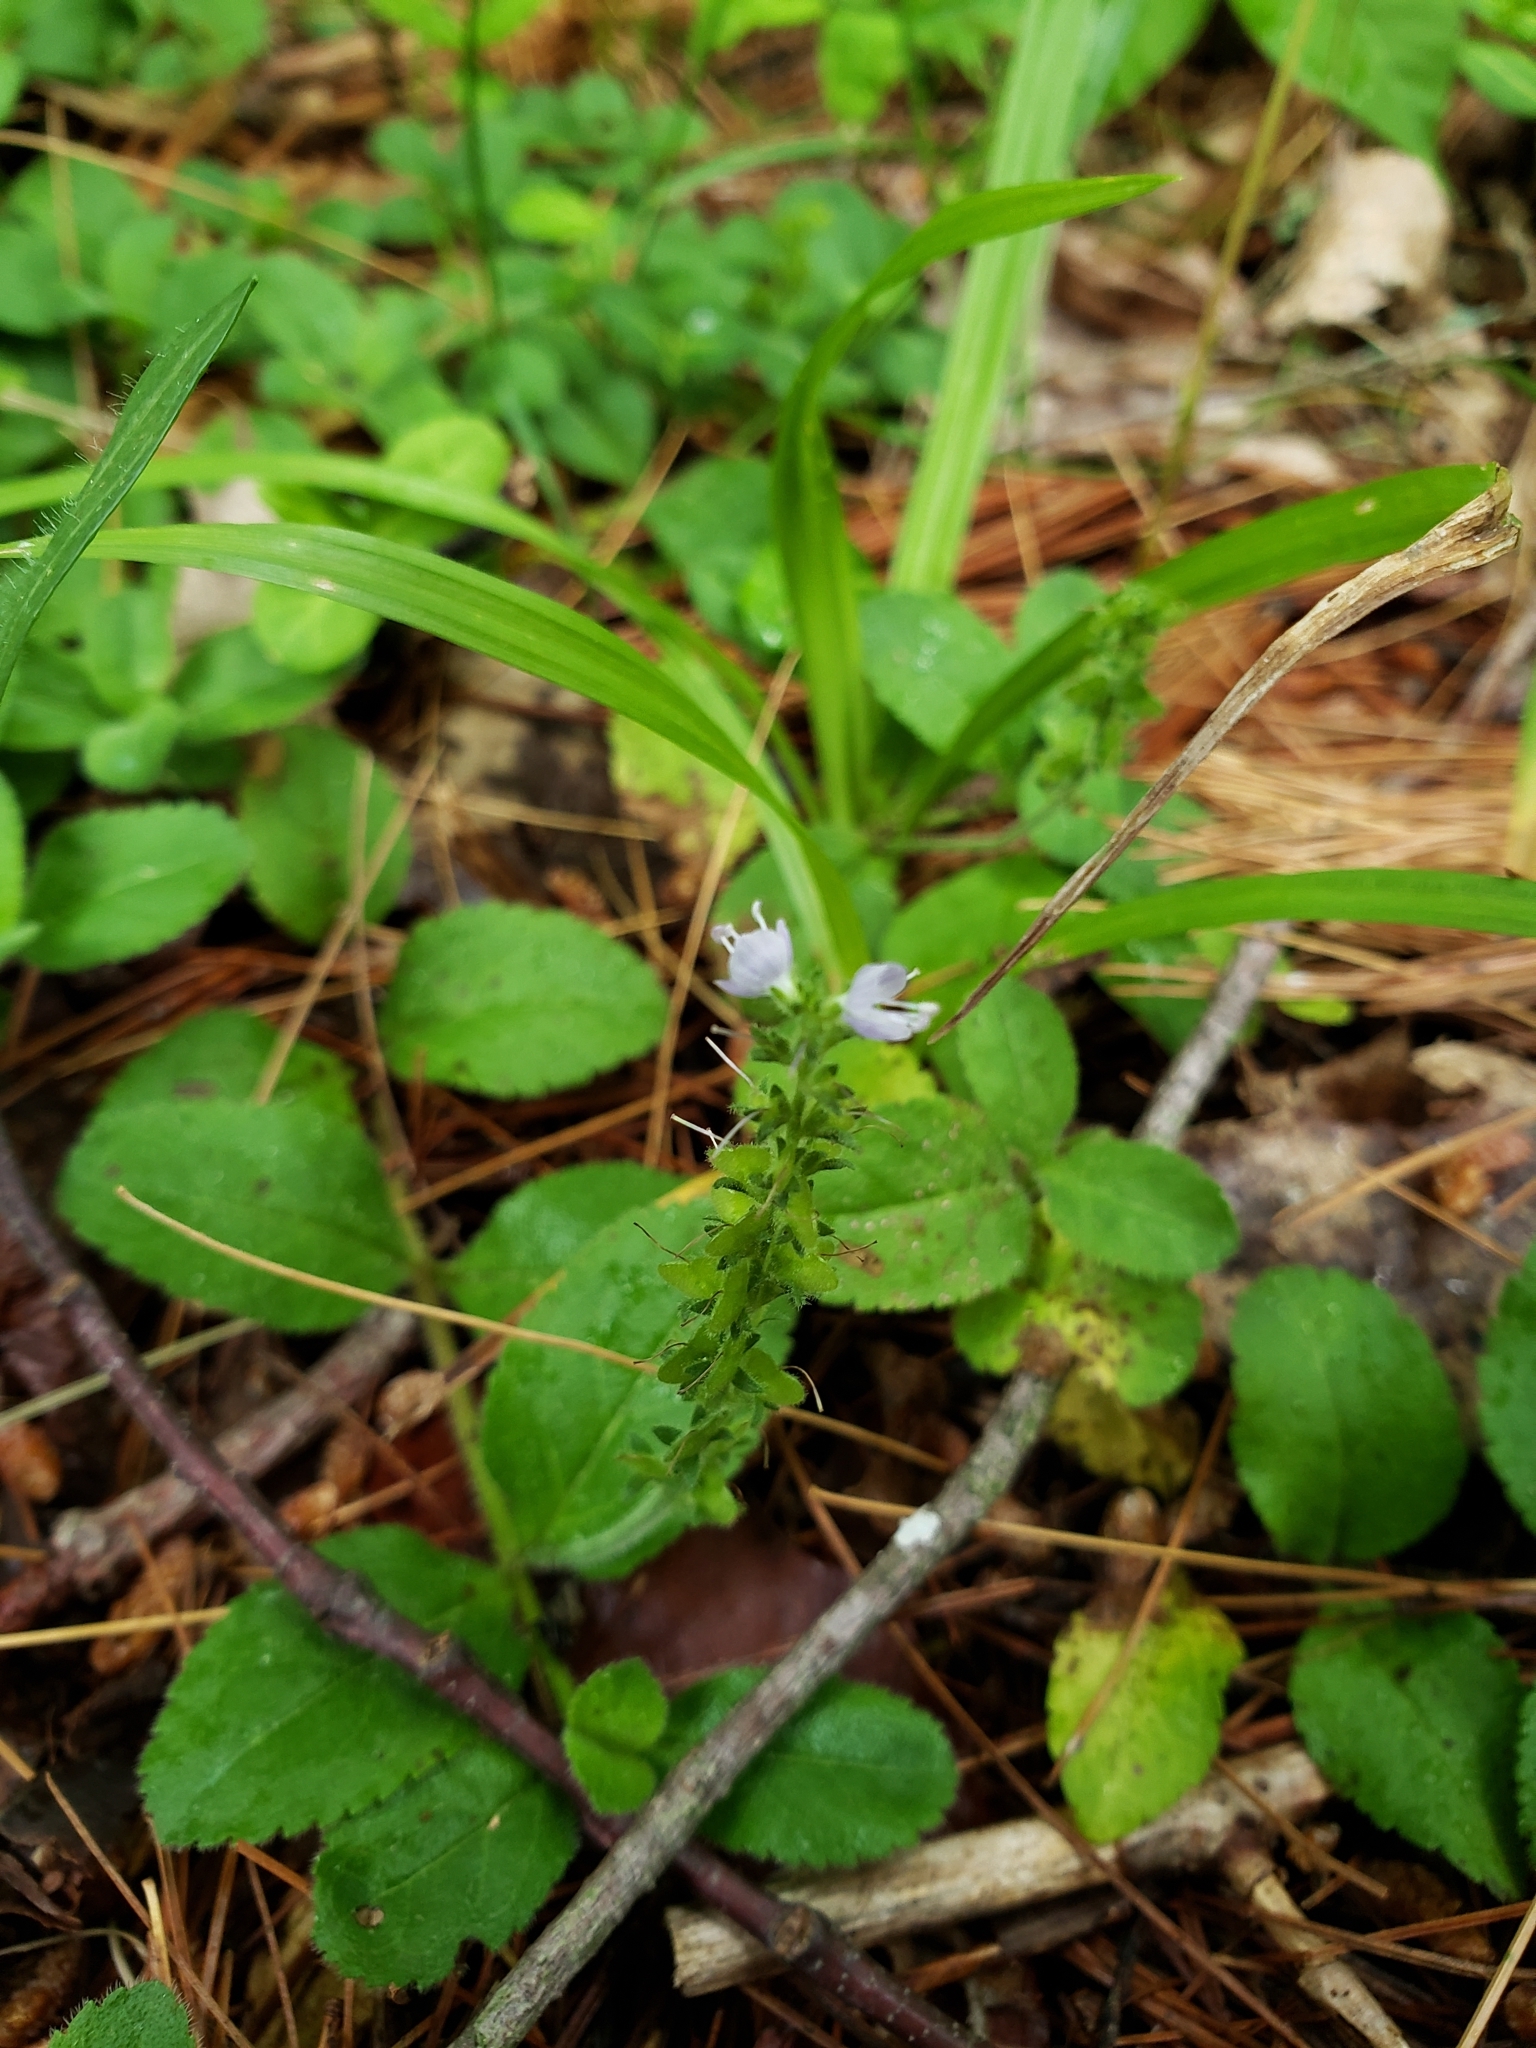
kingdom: Plantae
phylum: Tracheophyta
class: Magnoliopsida
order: Lamiales
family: Plantaginaceae
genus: Veronica
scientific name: Veronica officinalis
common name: Common speedwell
